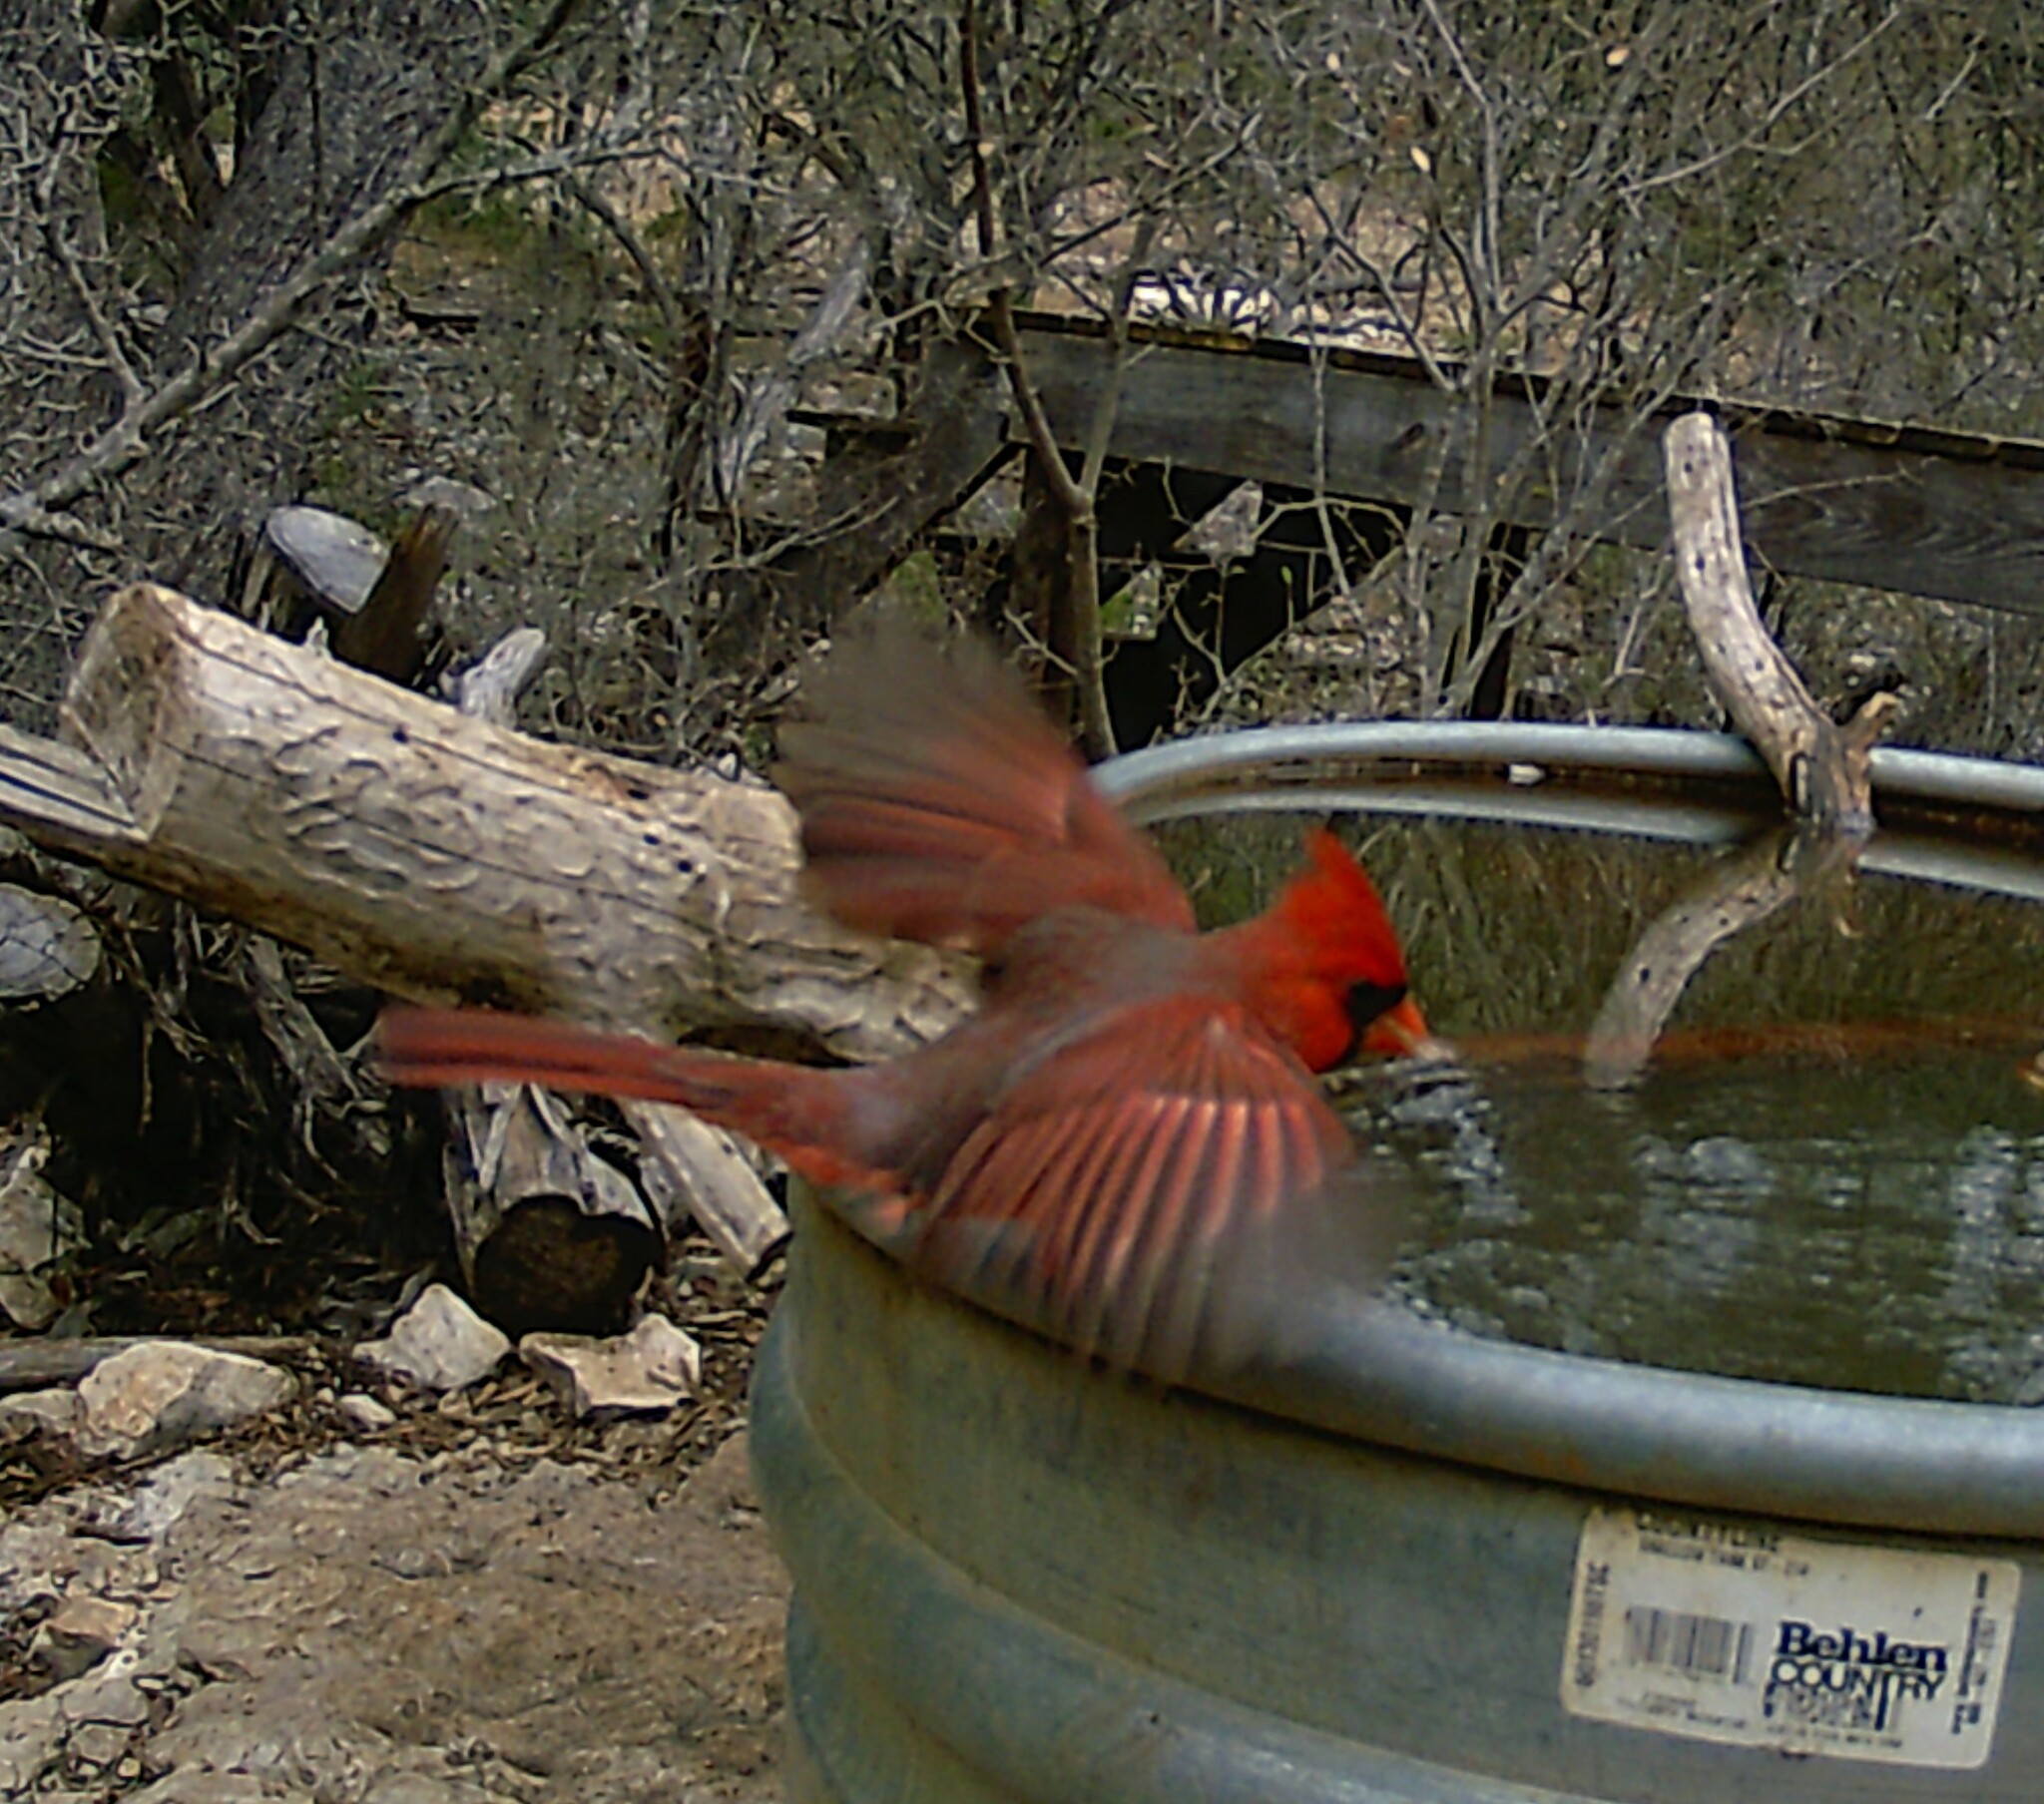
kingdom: Animalia
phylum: Chordata
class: Aves
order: Passeriformes
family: Cardinalidae
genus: Cardinalis
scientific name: Cardinalis cardinalis
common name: Northern cardinal
